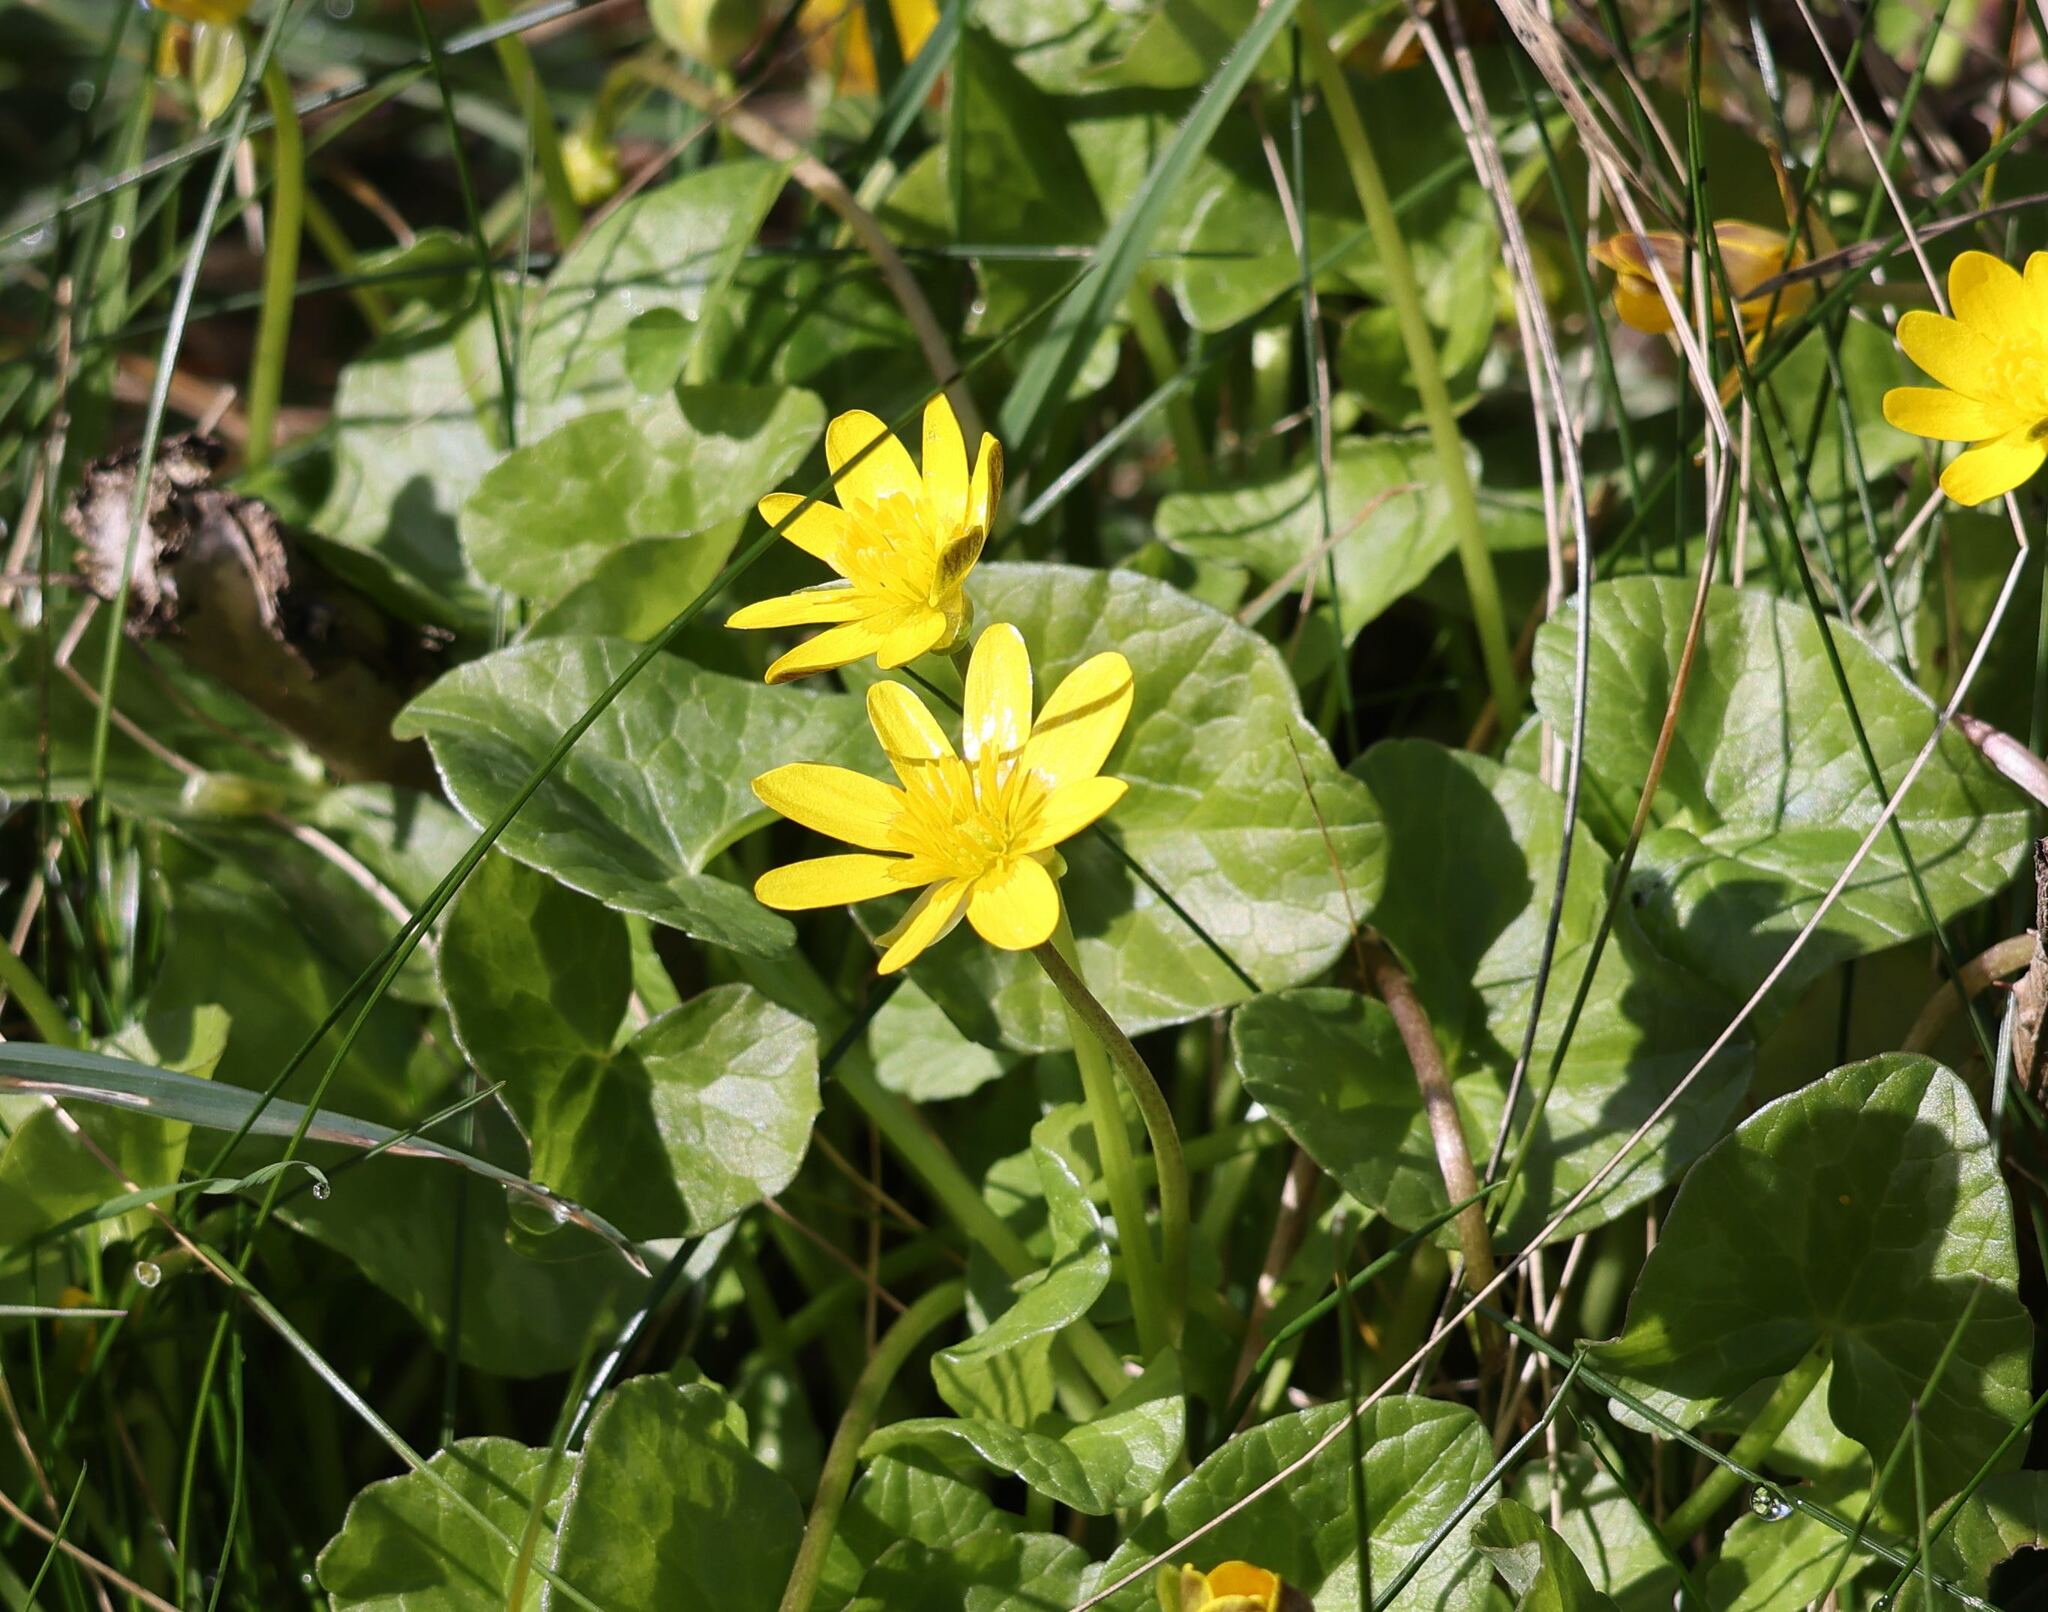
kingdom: Plantae
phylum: Tracheophyta
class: Magnoliopsida
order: Ranunculales
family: Ranunculaceae
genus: Ficaria
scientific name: Ficaria verna
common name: Lesser celandine
